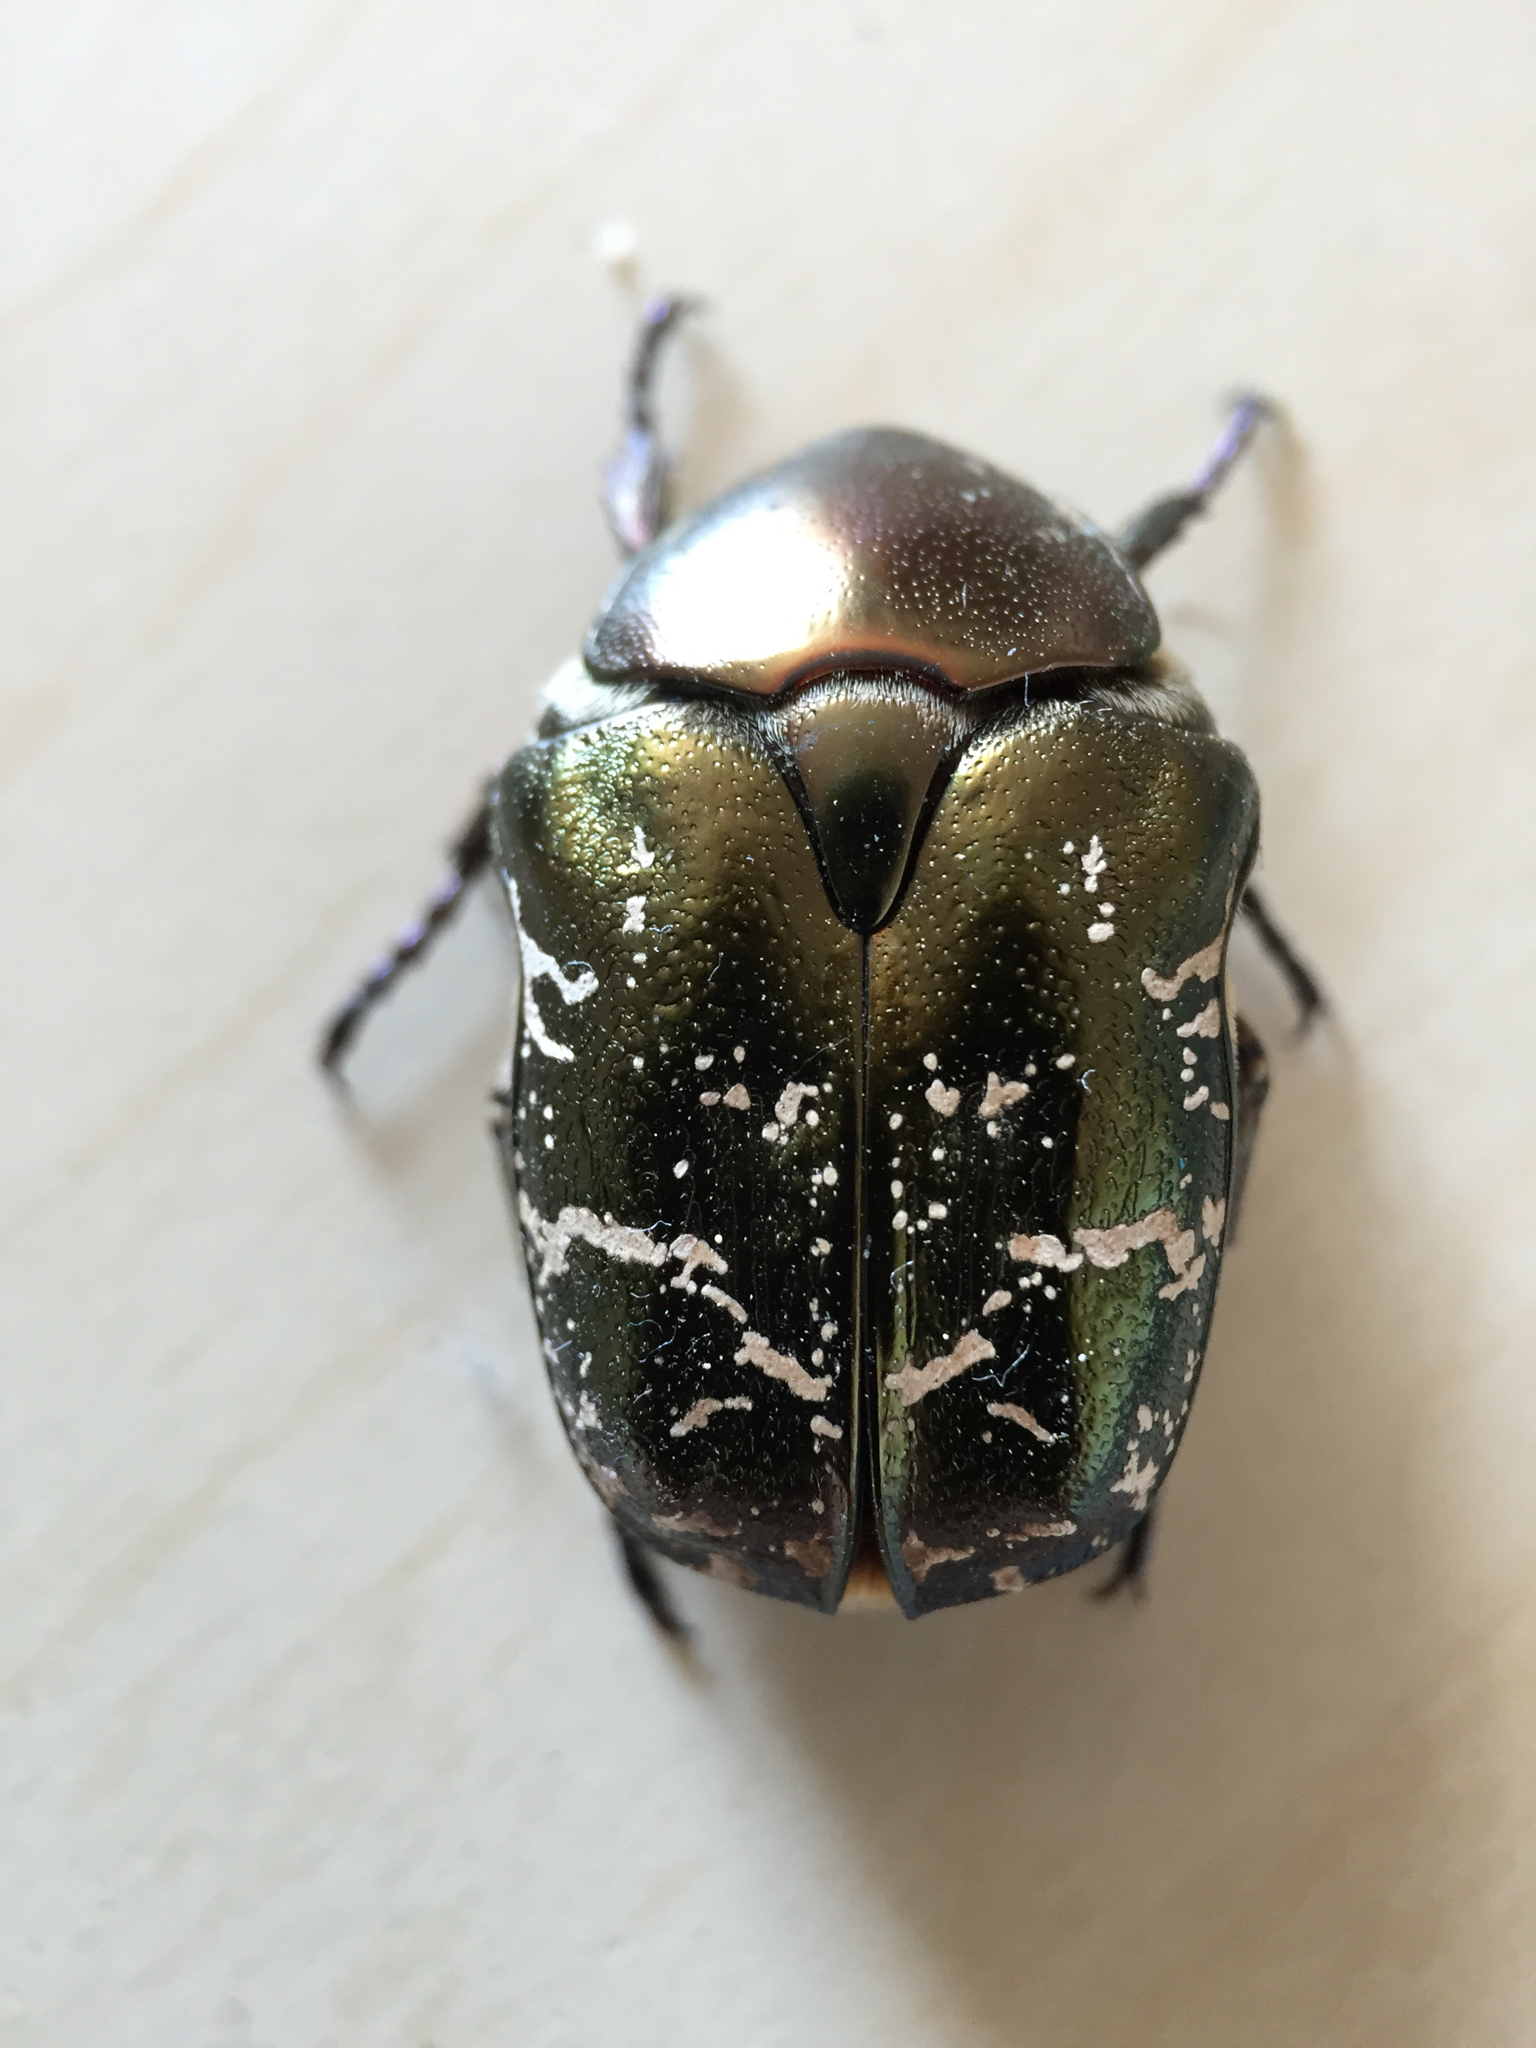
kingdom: Animalia
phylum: Arthropoda
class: Insecta
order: Coleoptera
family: Scarabaeidae
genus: Protaetia
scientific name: Protaetia cuprea
